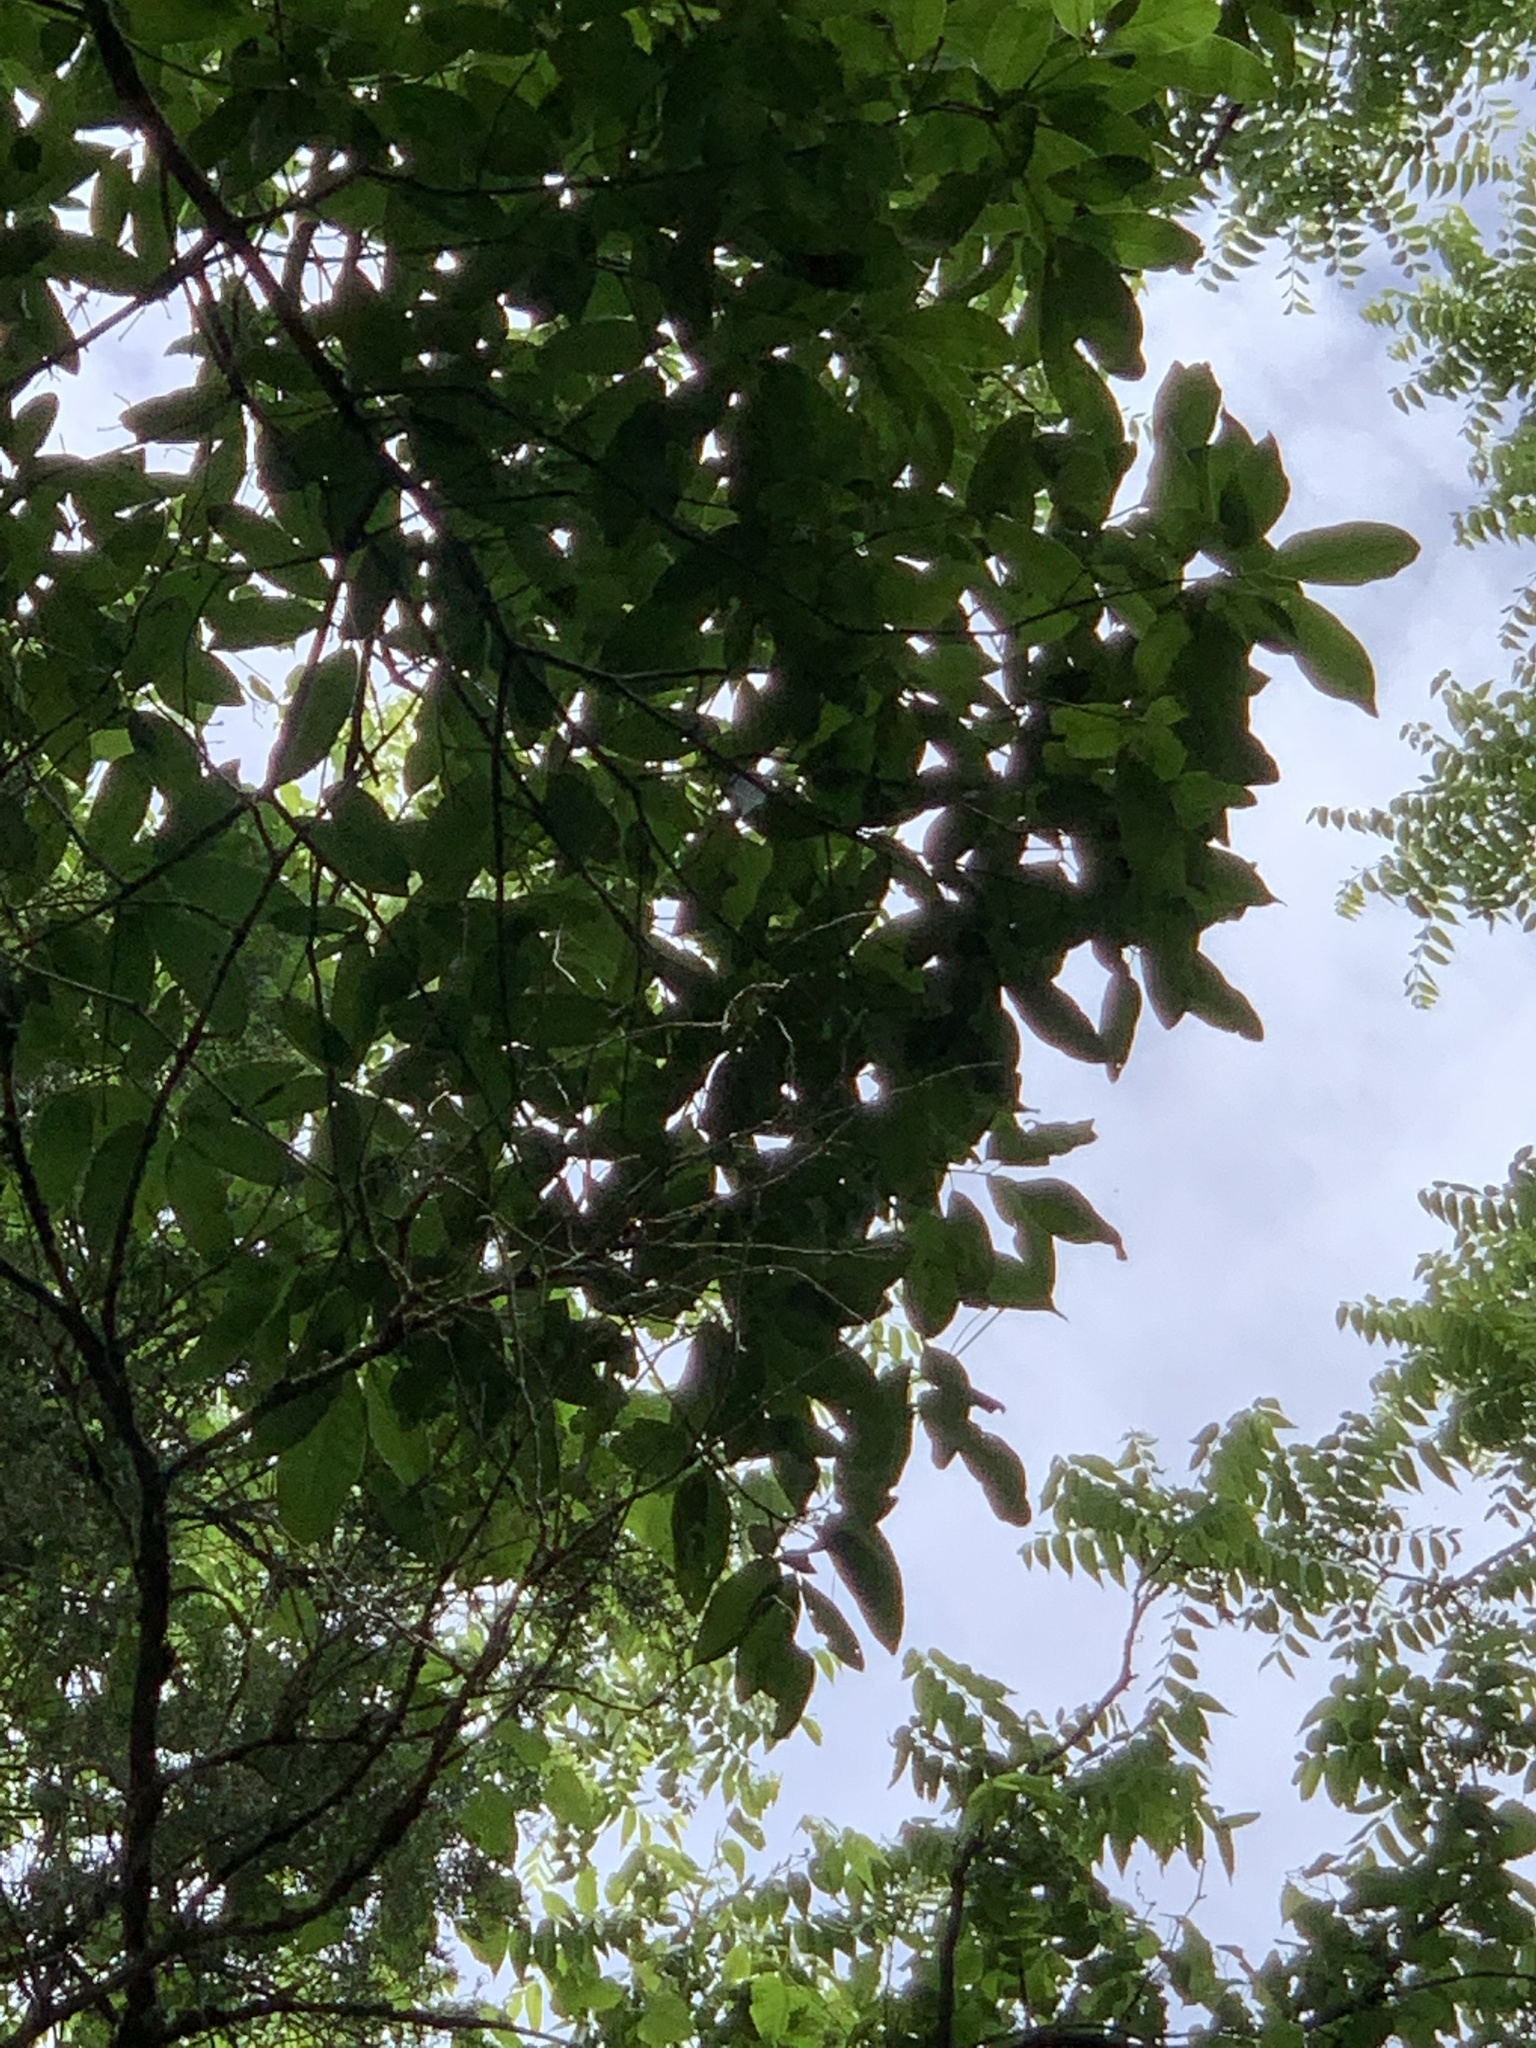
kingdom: Plantae
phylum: Tracheophyta
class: Magnoliopsida
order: Fagales
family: Fagaceae
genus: Quercus
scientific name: Quercus imbricaria
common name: Shingle oak
